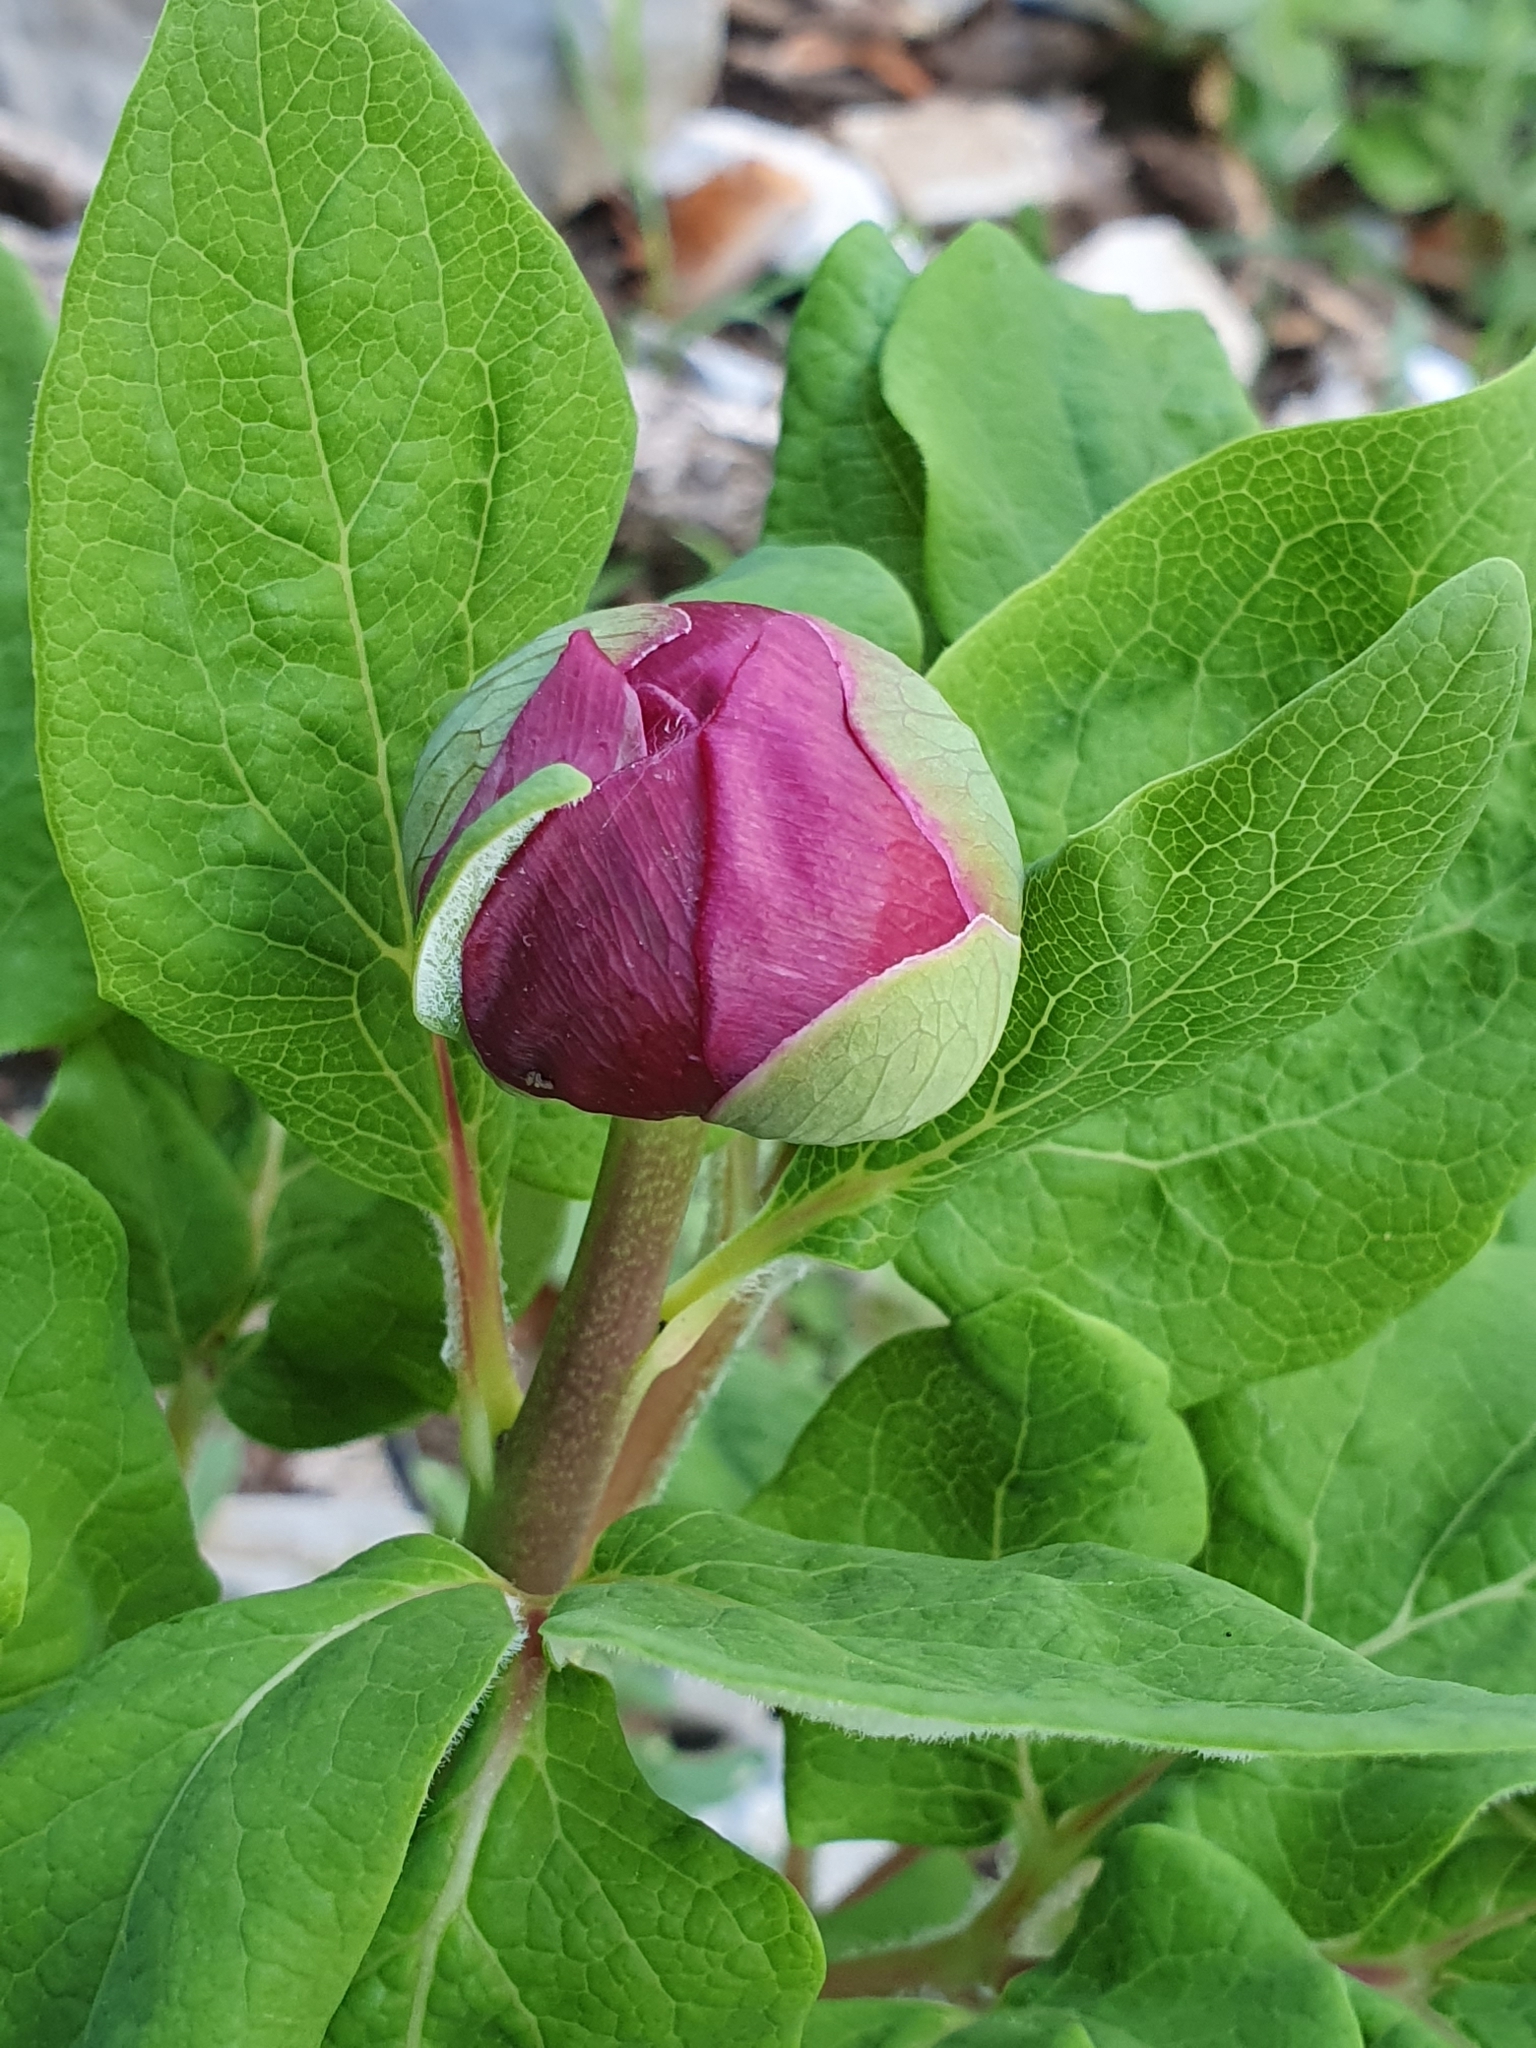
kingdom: Plantae
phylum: Tracheophyta
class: Magnoliopsida
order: Saxifragales
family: Paeoniaceae
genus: Paeonia
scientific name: Paeonia algeriensis
